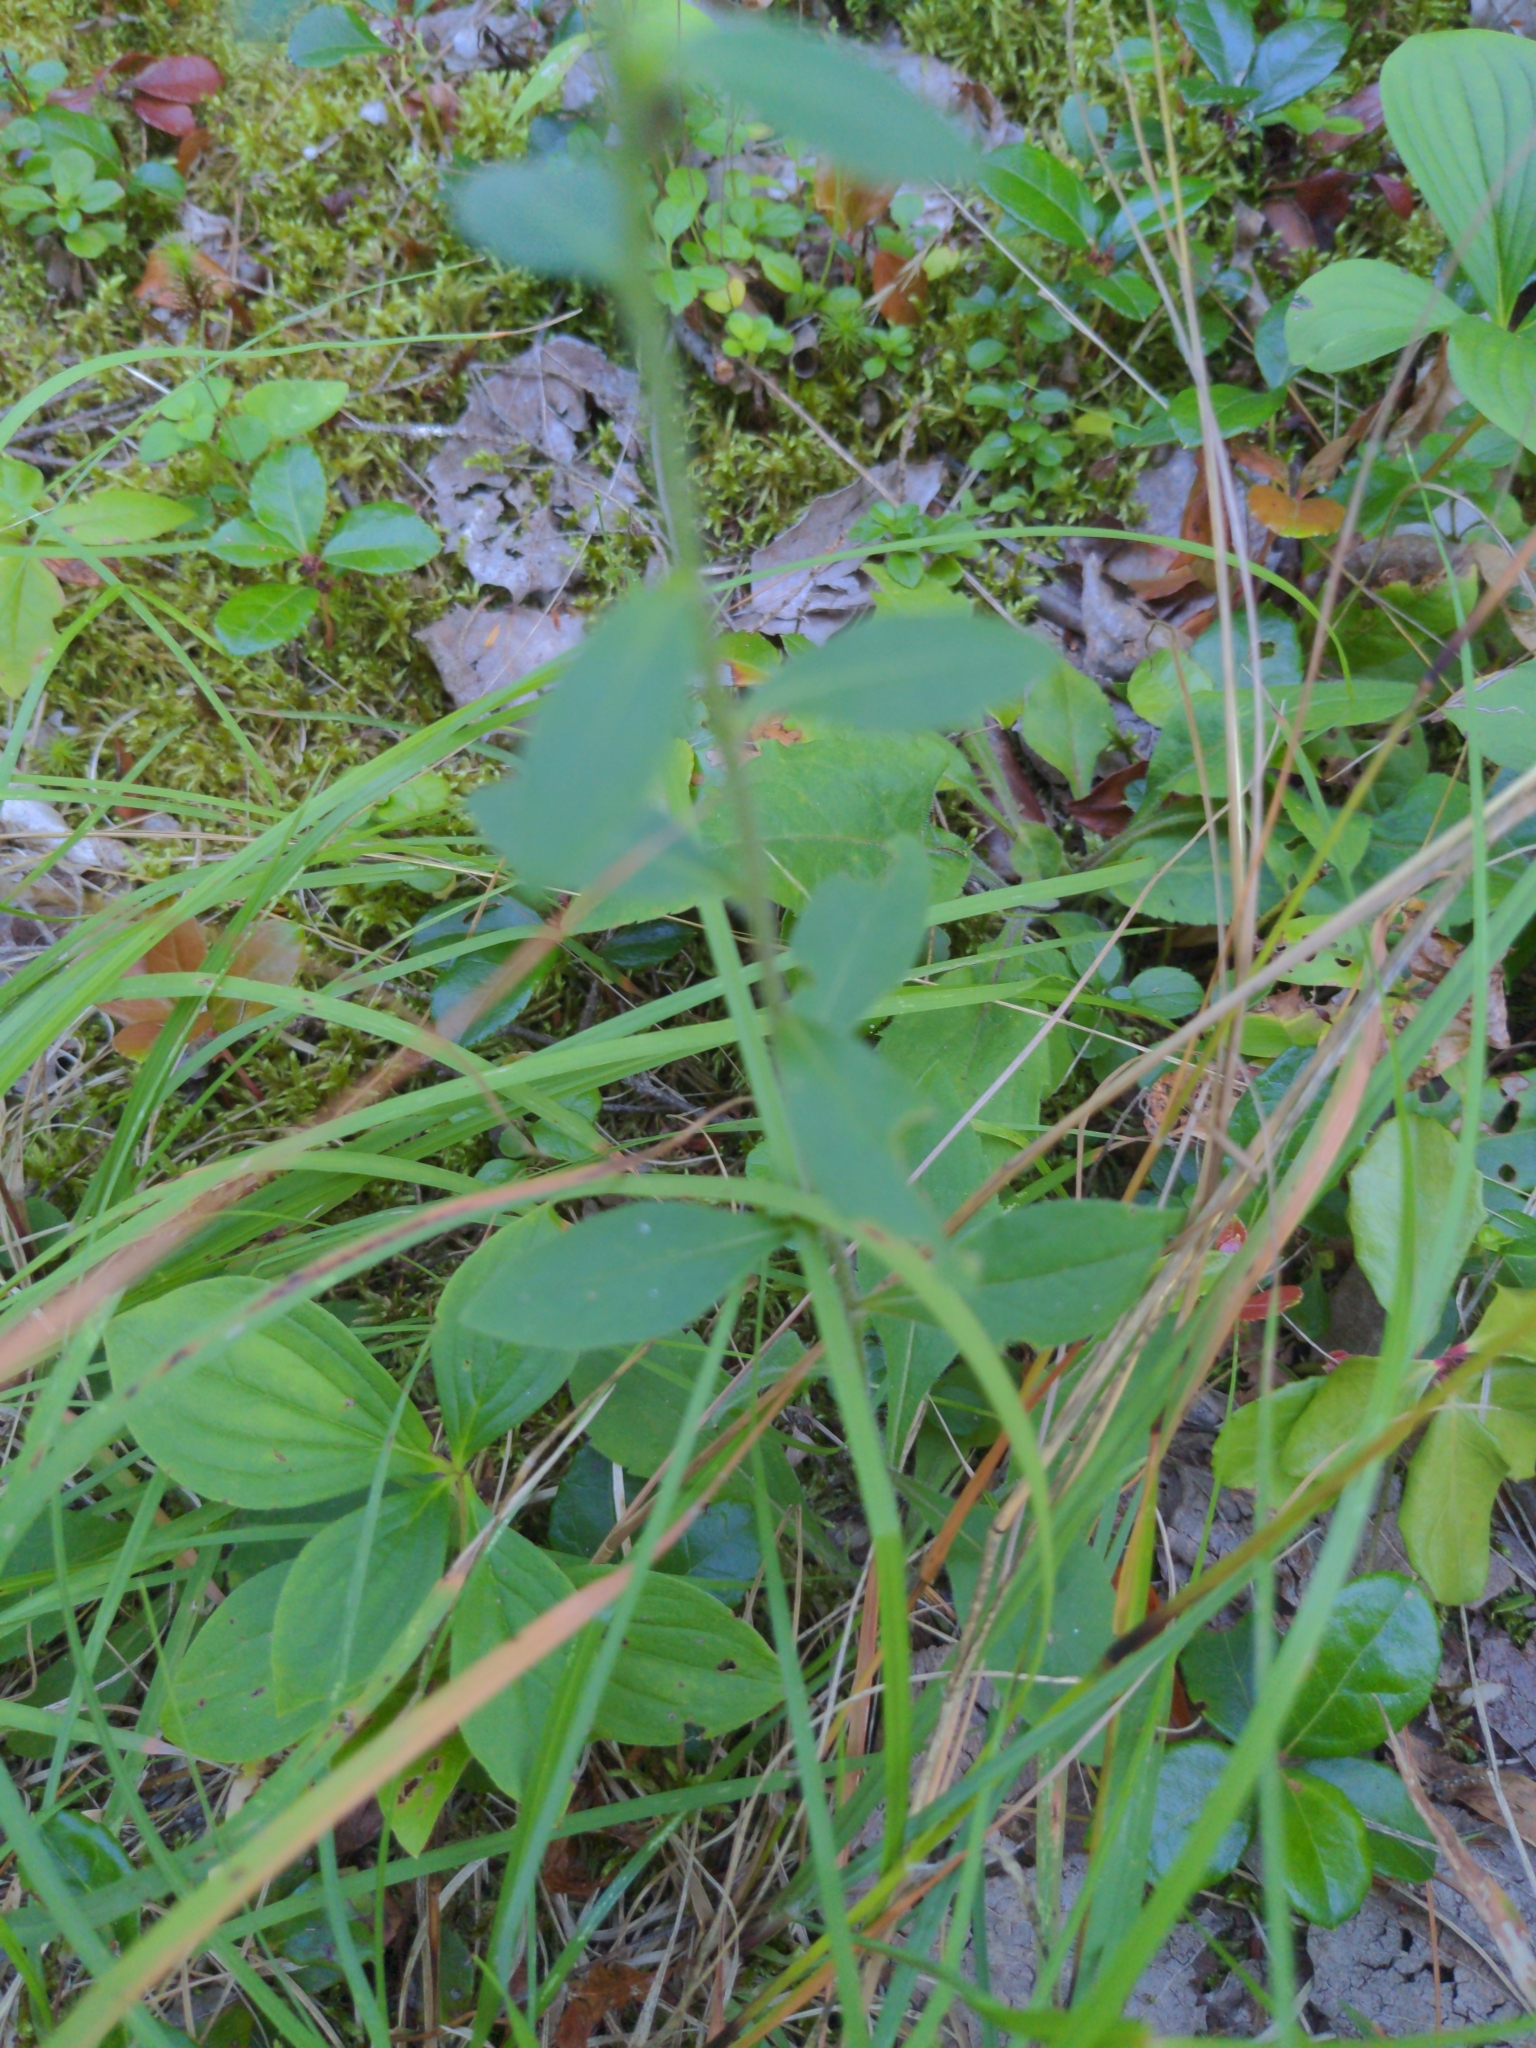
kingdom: Plantae
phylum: Tracheophyta
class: Magnoliopsida
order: Asterales
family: Asteraceae
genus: Solidago
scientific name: Solidago bicolor
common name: Silverrod
